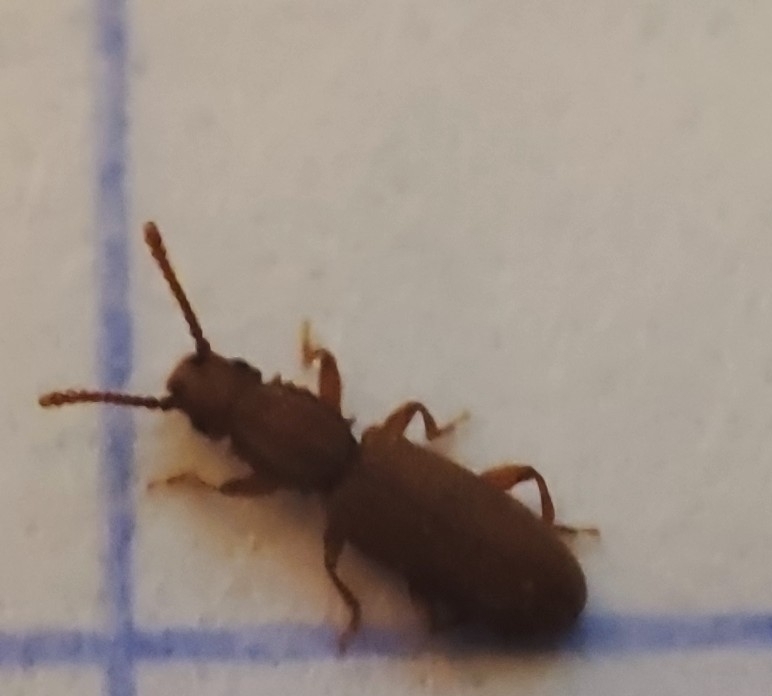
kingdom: Animalia
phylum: Arthropoda
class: Insecta
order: Coleoptera
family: Silvanidae
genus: Oryzaephilus
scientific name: Oryzaephilus surinamensis
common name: Sawtoothed grain beetle
